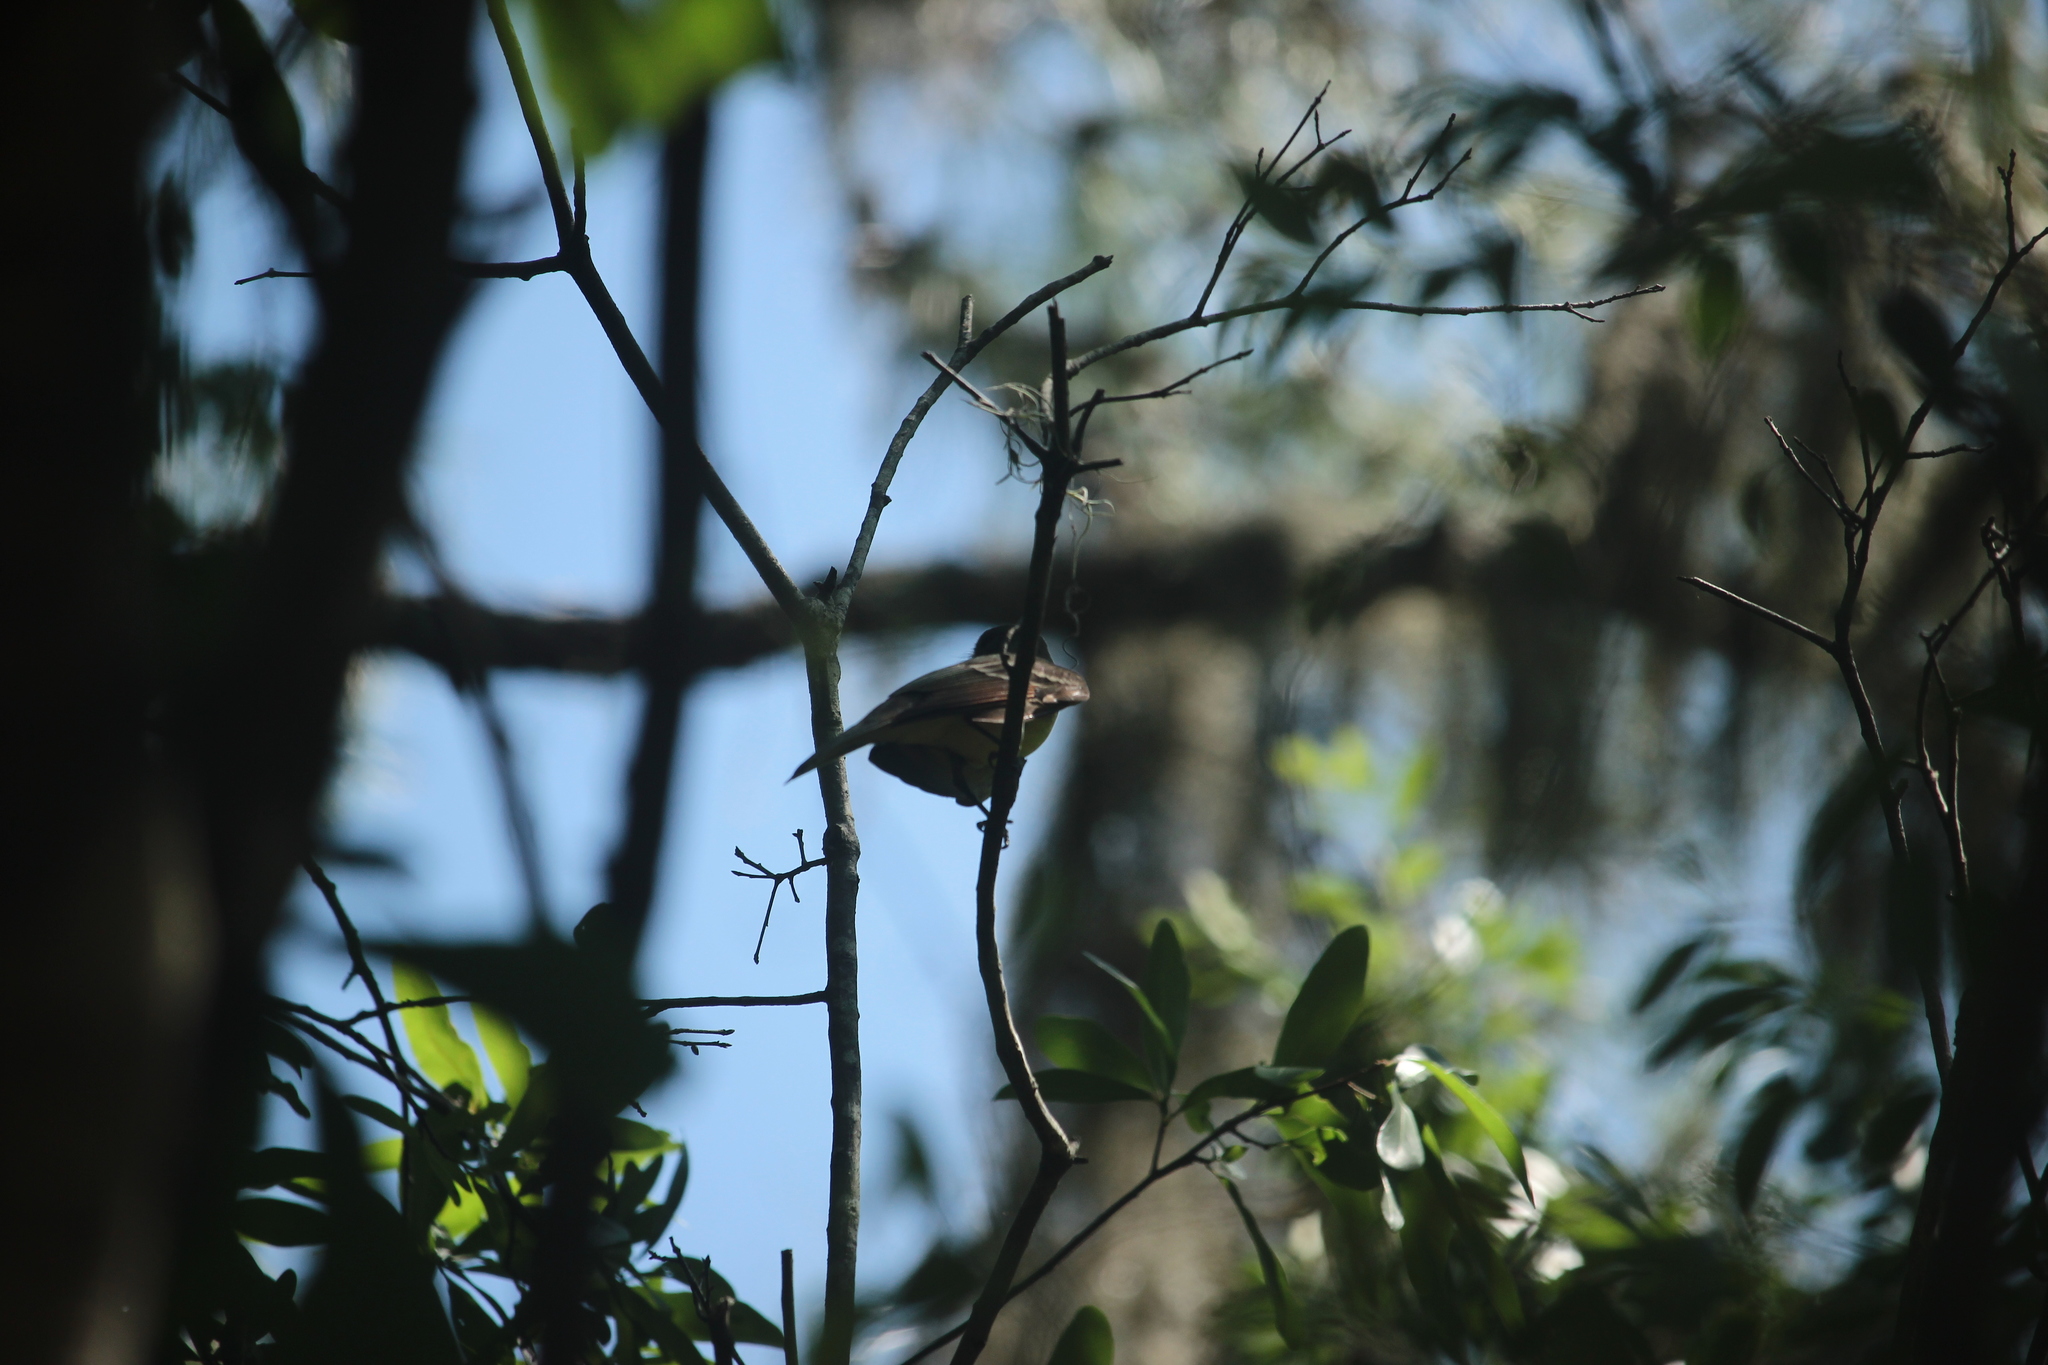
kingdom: Animalia
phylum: Chordata
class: Aves
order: Passeriformes
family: Tyrannidae
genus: Myiarchus
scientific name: Myiarchus crinitus
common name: Great crested flycatcher
